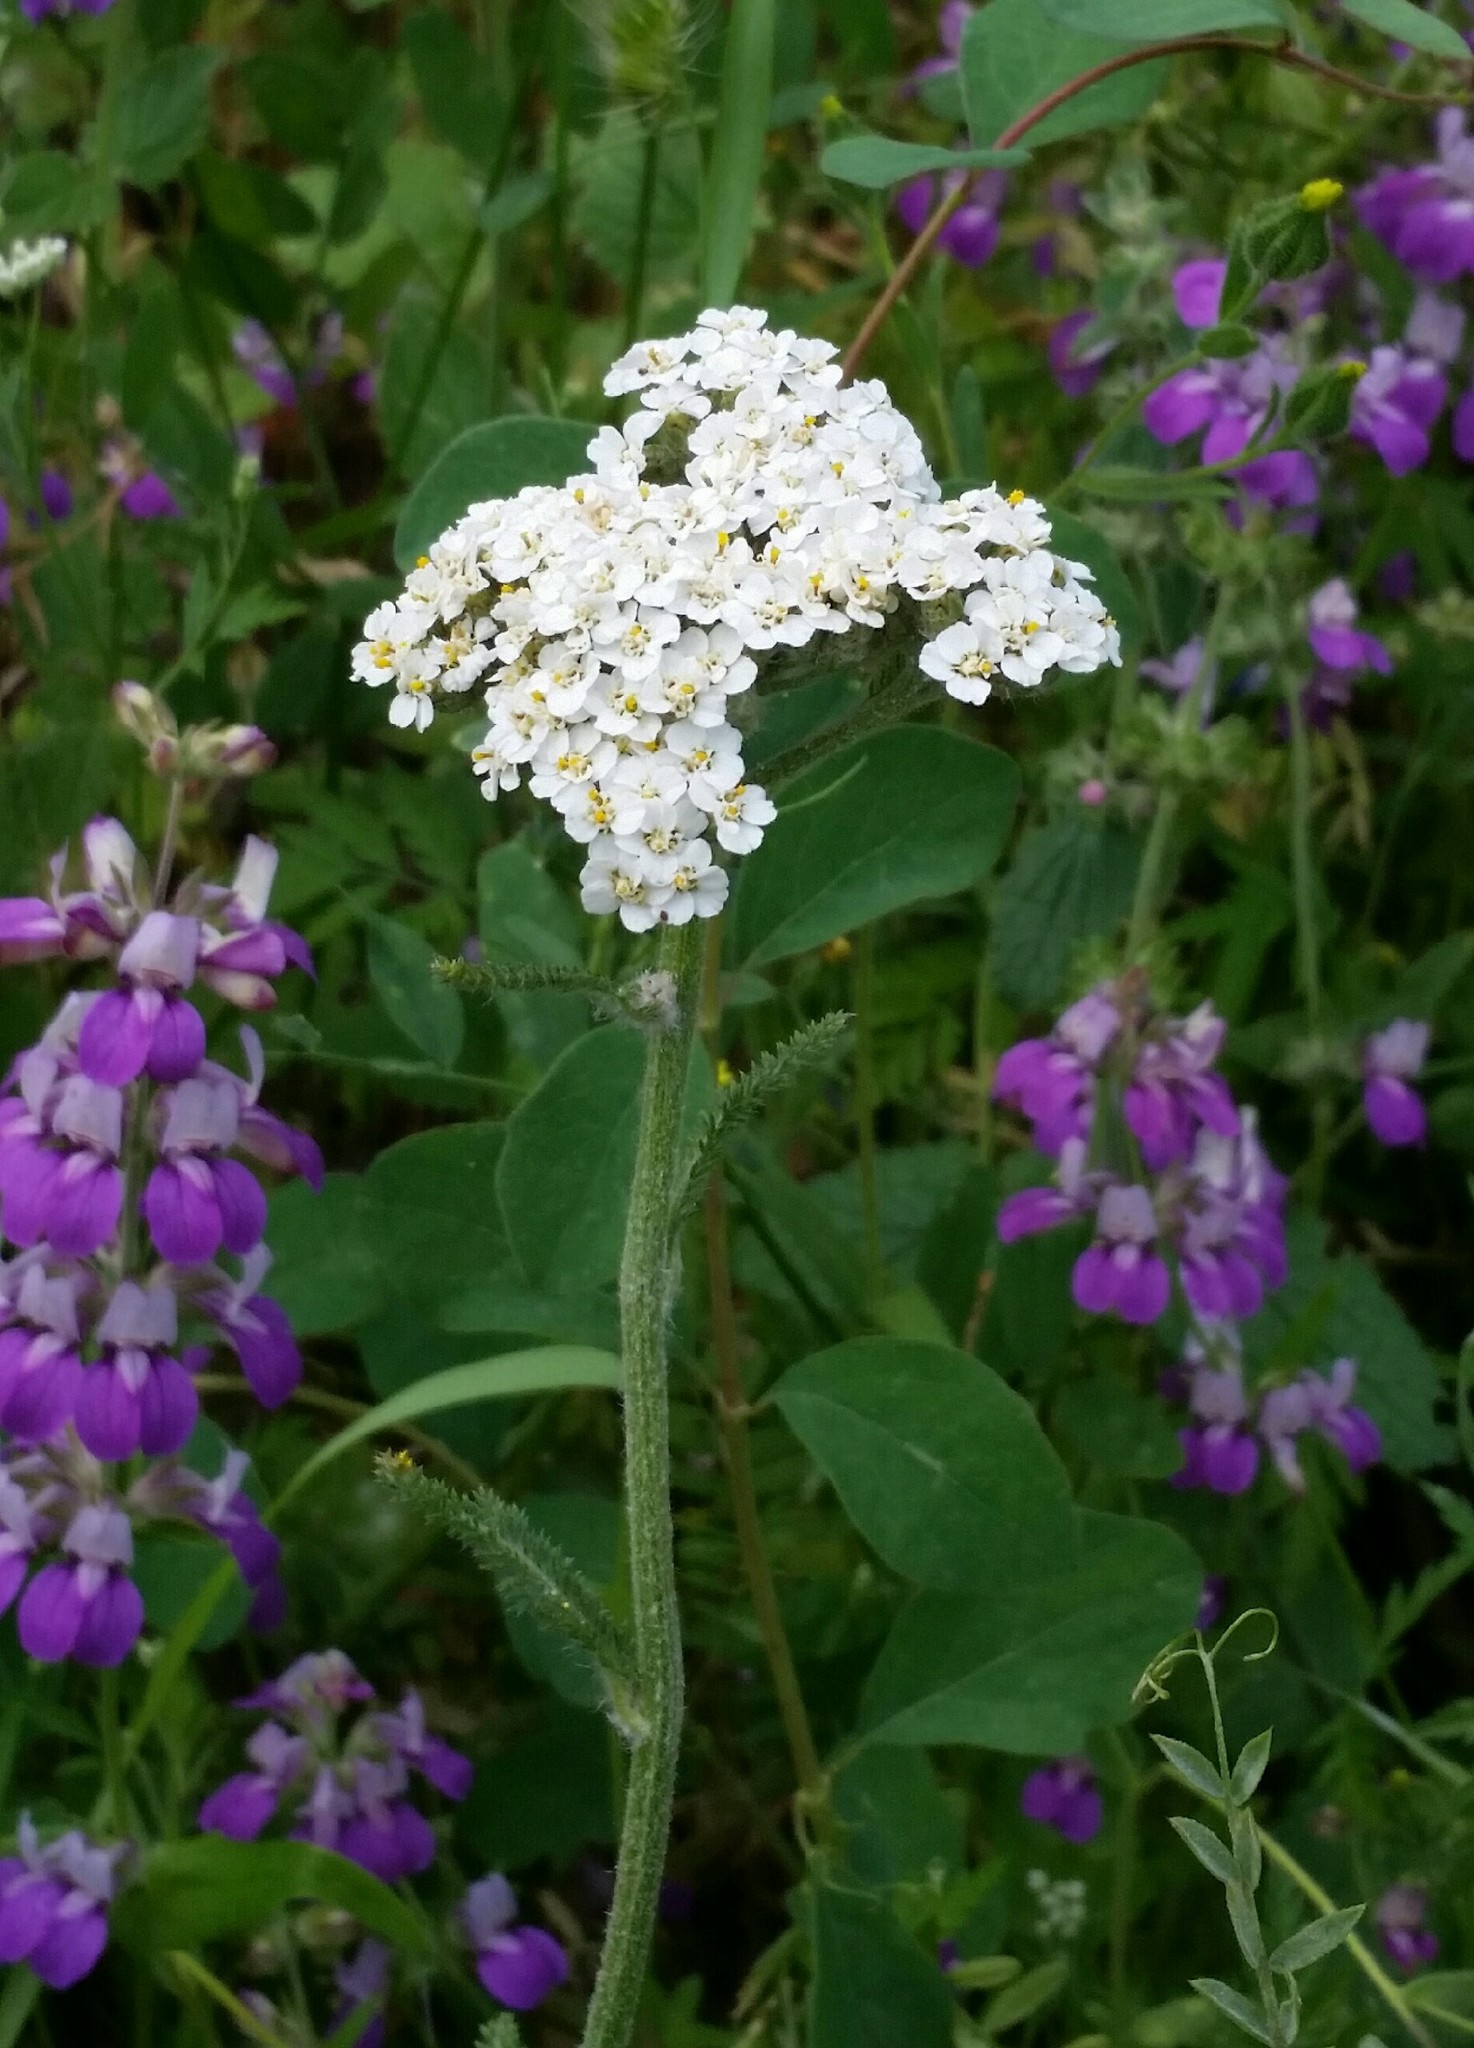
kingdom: Plantae
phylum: Tracheophyta
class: Magnoliopsida
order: Asterales
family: Asteraceae
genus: Achillea
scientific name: Achillea millefolium
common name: Yarrow
